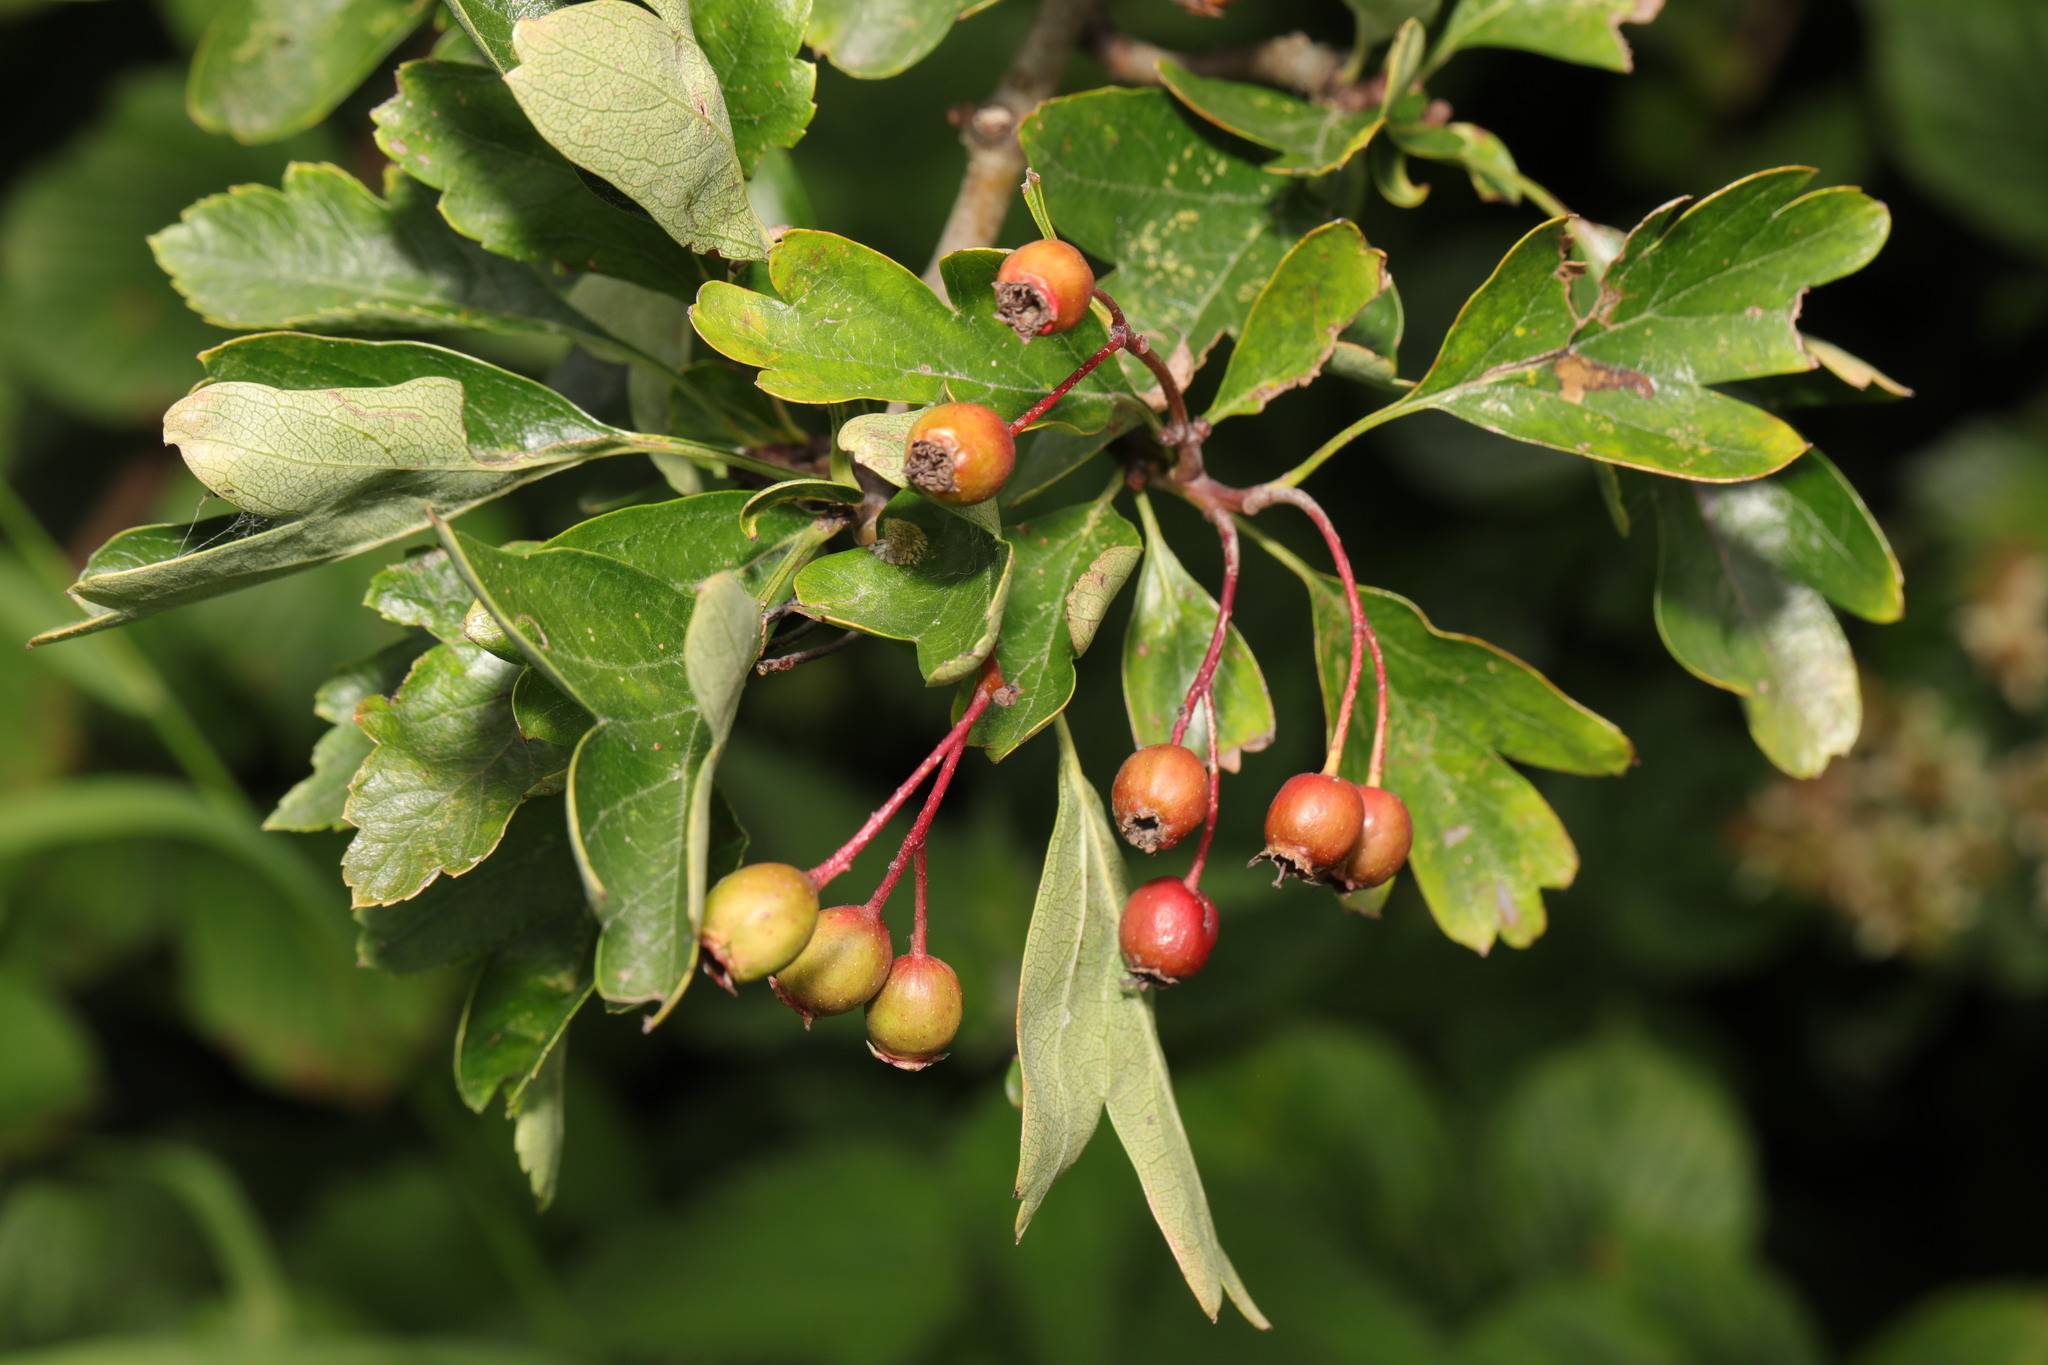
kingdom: Plantae
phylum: Tracheophyta
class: Magnoliopsida
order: Rosales
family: Rosaceae
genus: Crataegus
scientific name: Crataegus monogyna
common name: Hawthorn
